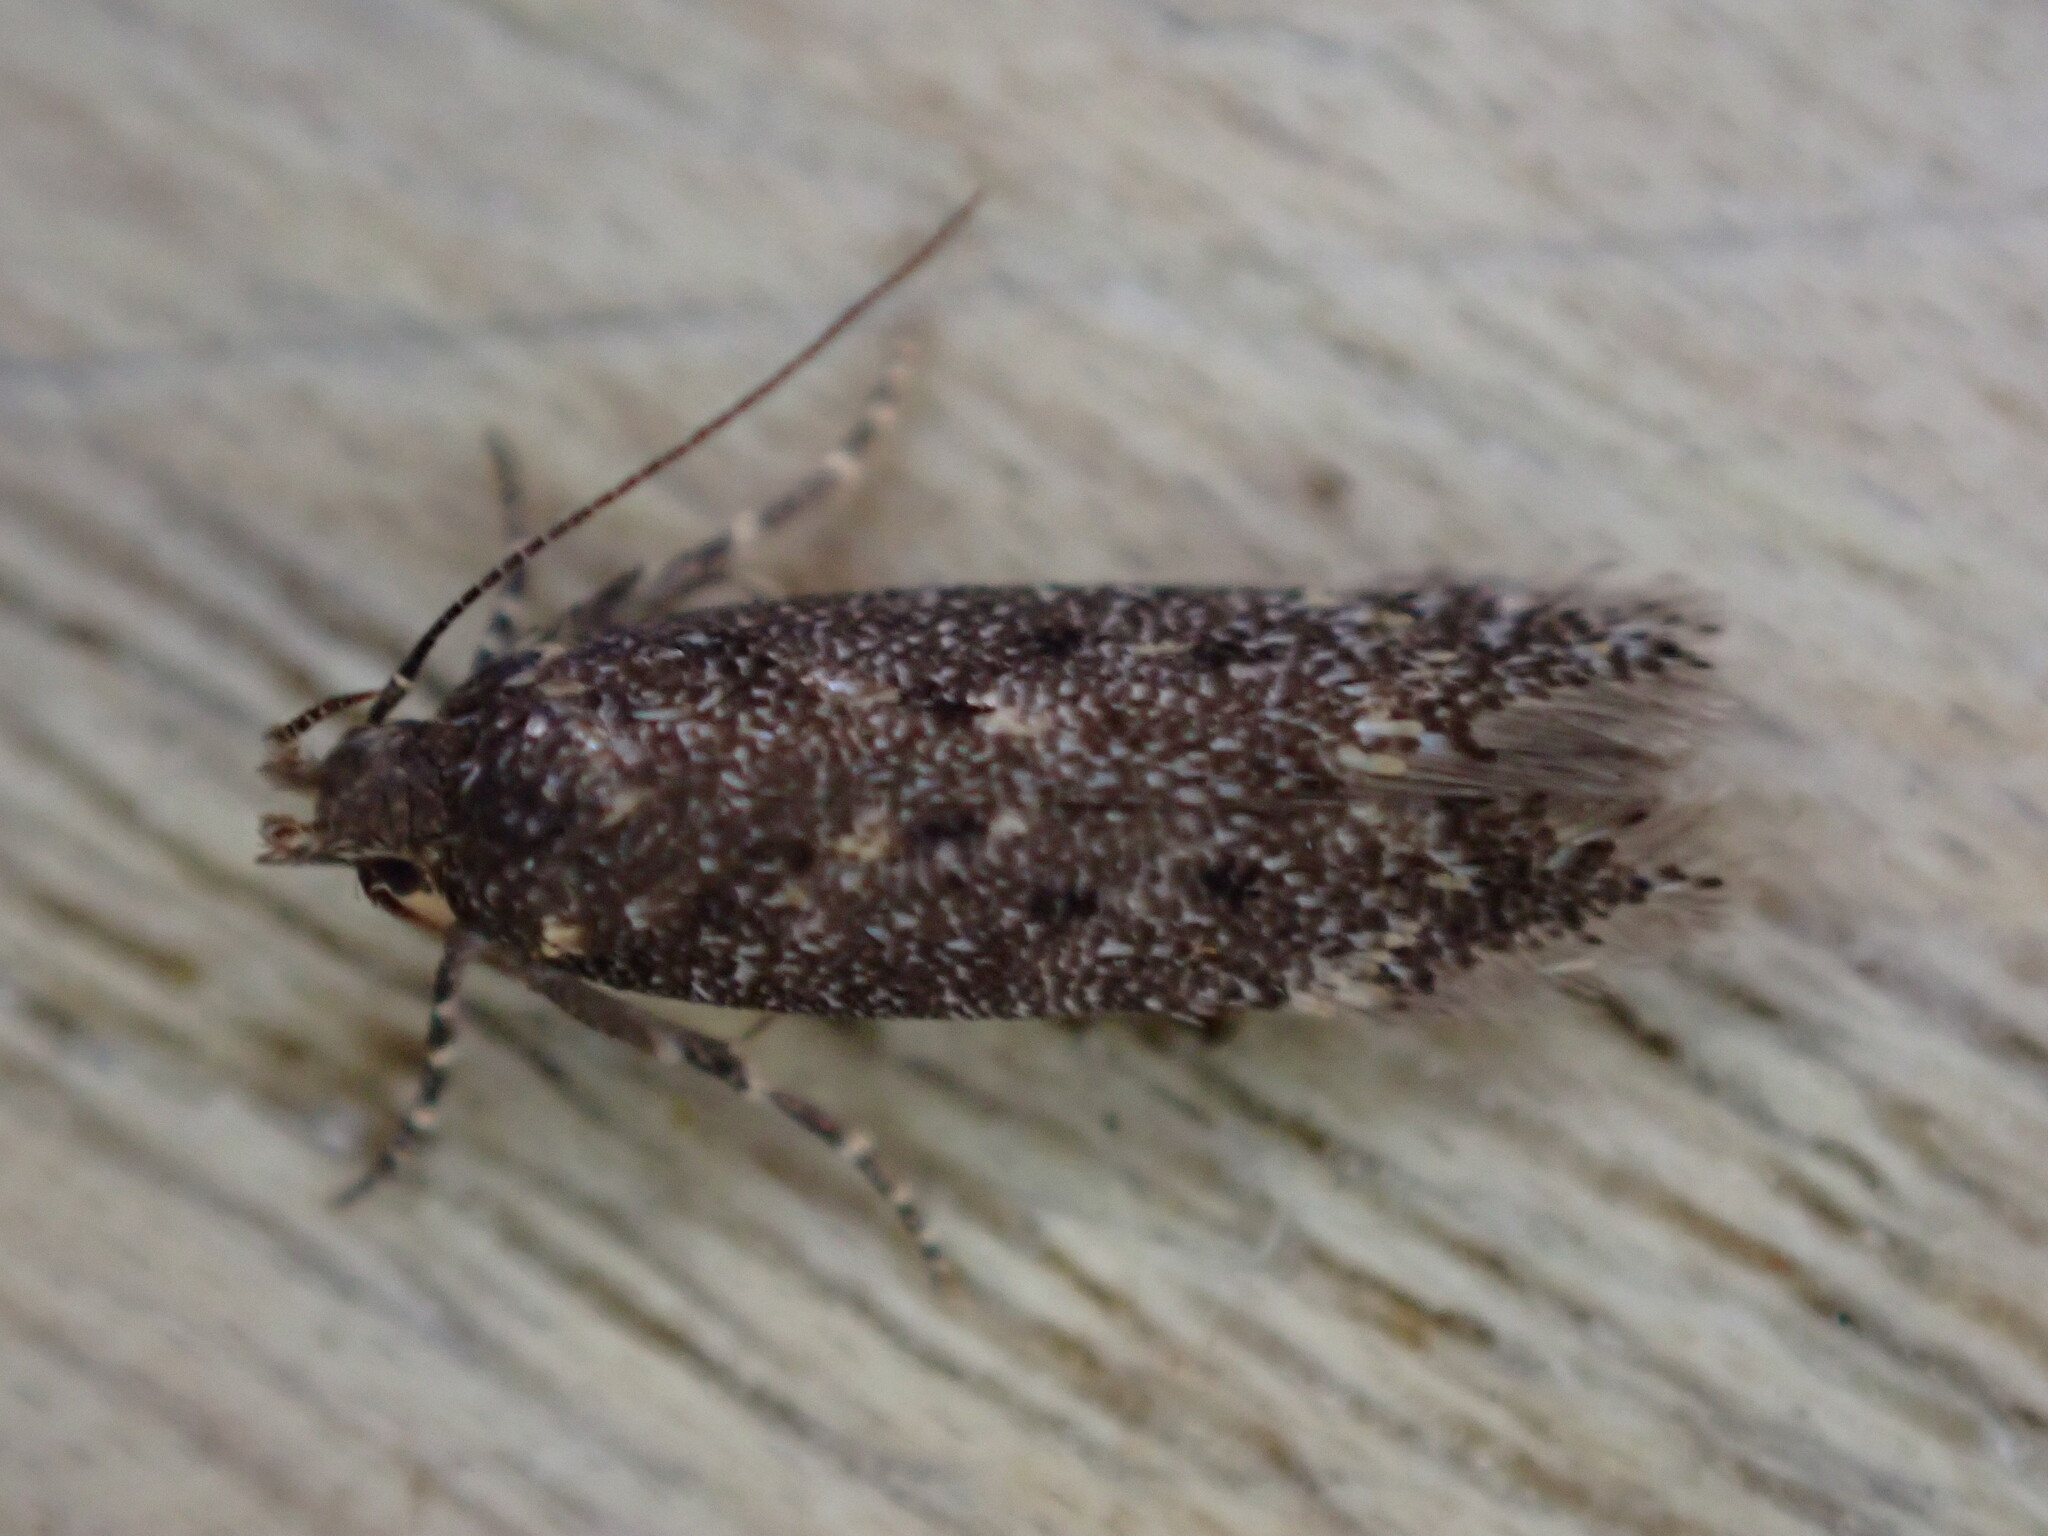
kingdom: Animalia
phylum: Arthropoda
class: Insecta
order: Lepidoptera
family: Gelechiidae
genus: Bryotropha
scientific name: Bryotropha affinis
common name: Dark groundling
